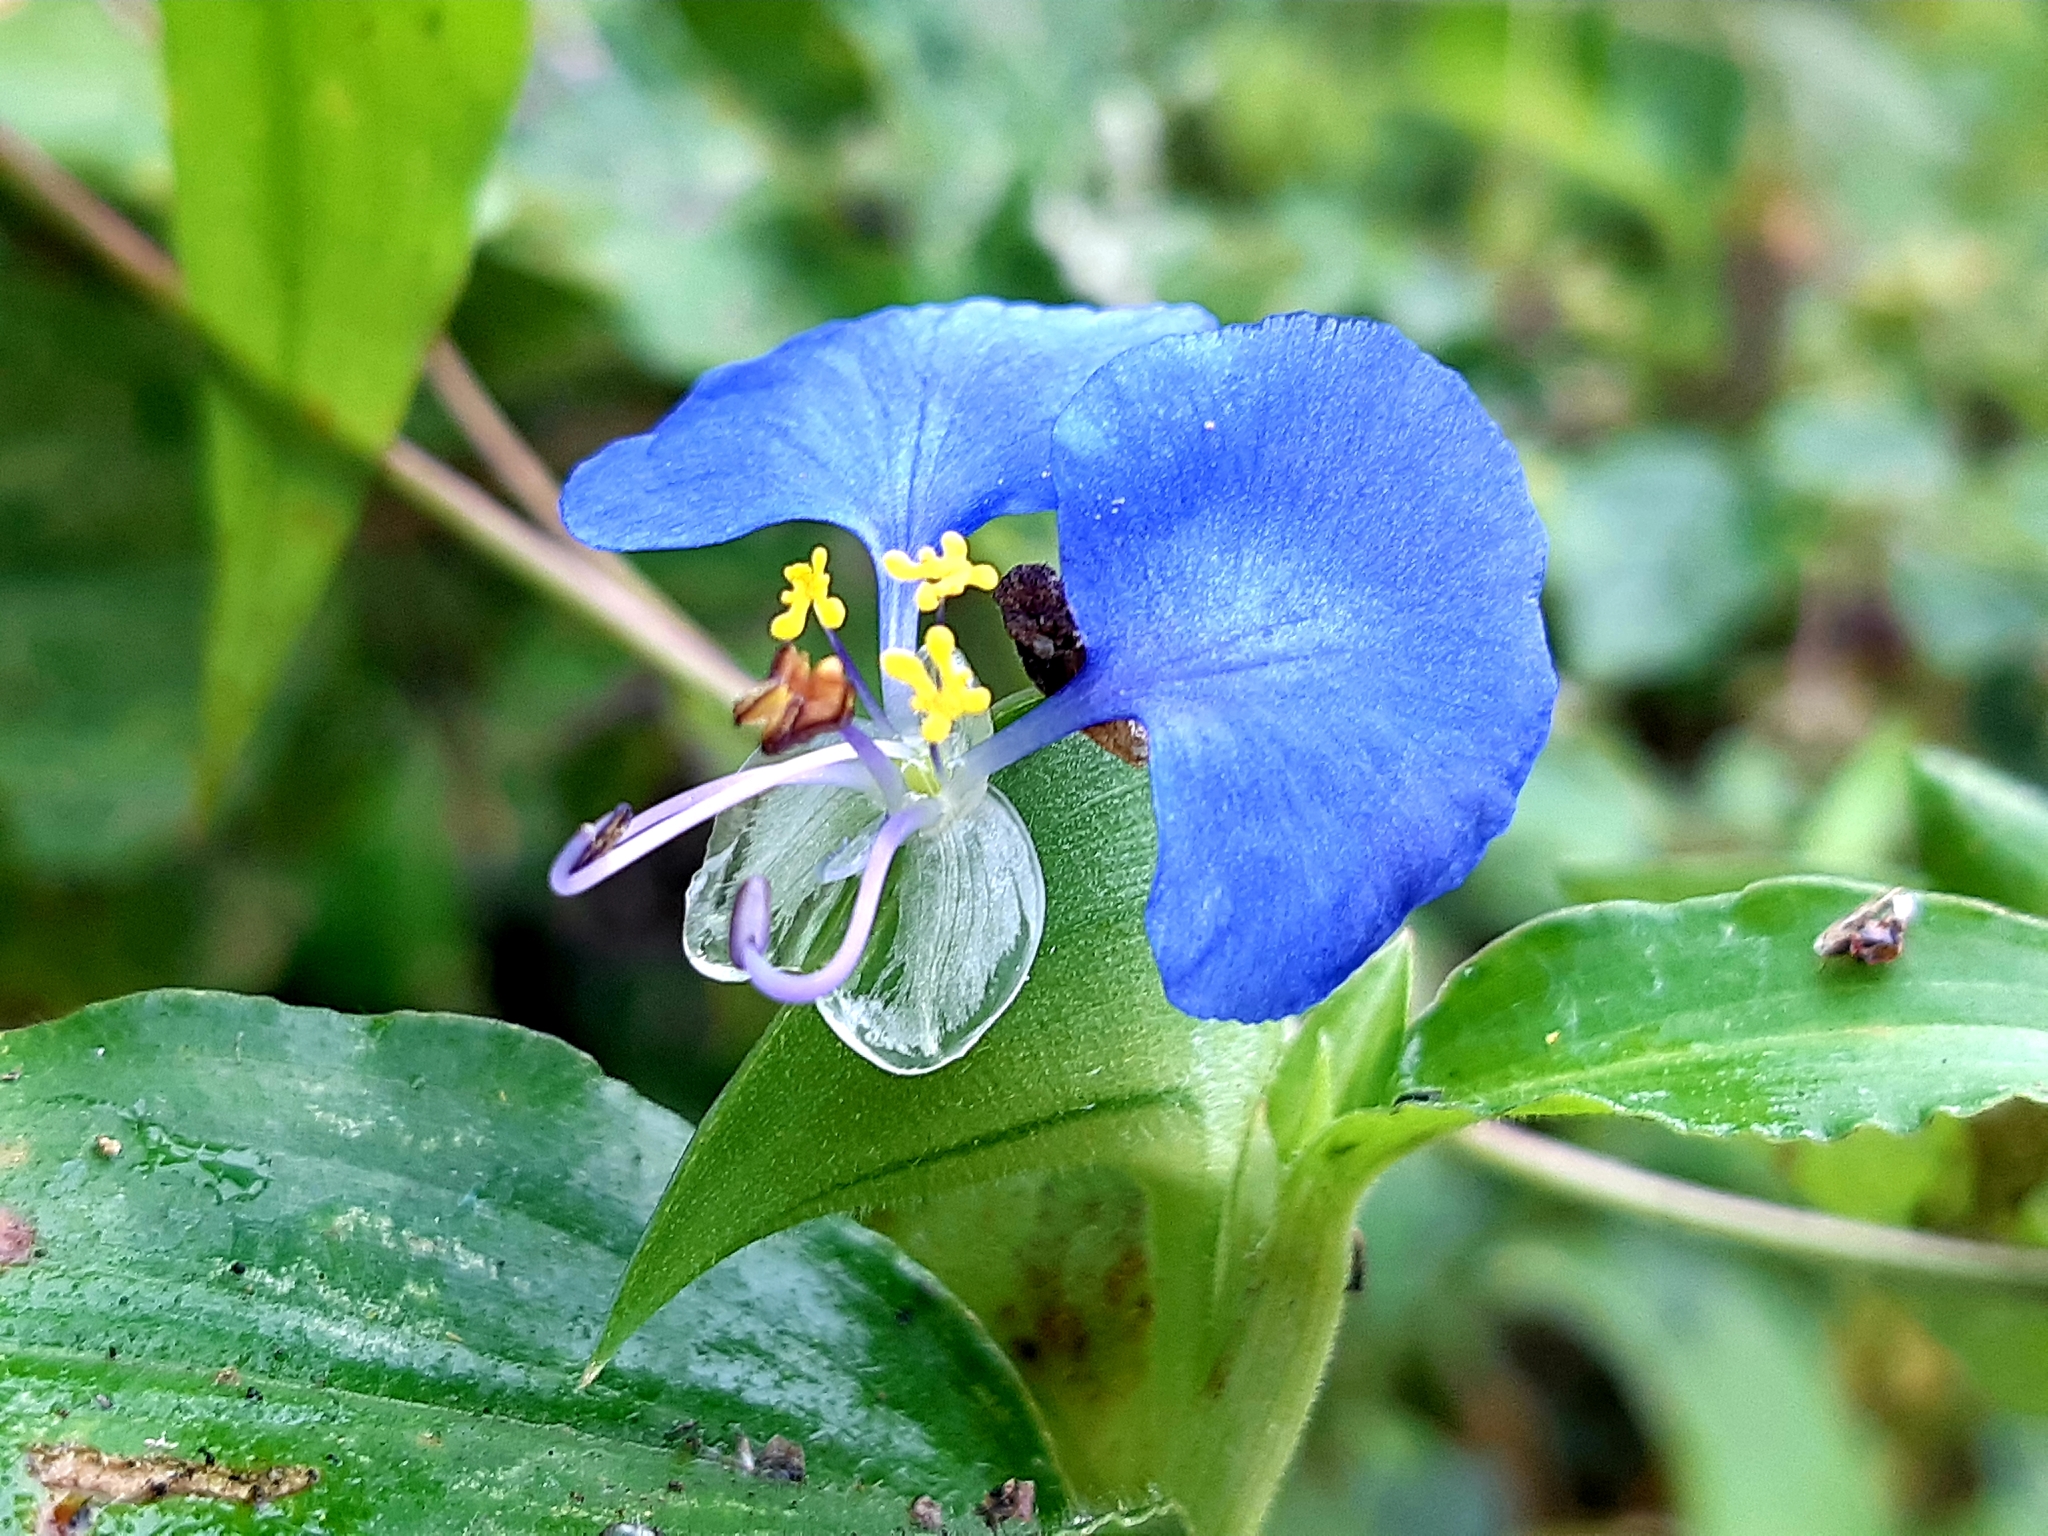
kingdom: Plantae
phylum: Tracheophyta
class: Liliopsida
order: Commelinales
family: Commelinaceae
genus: Commelina
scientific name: Commelina erecta
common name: Blousel blommetjie
